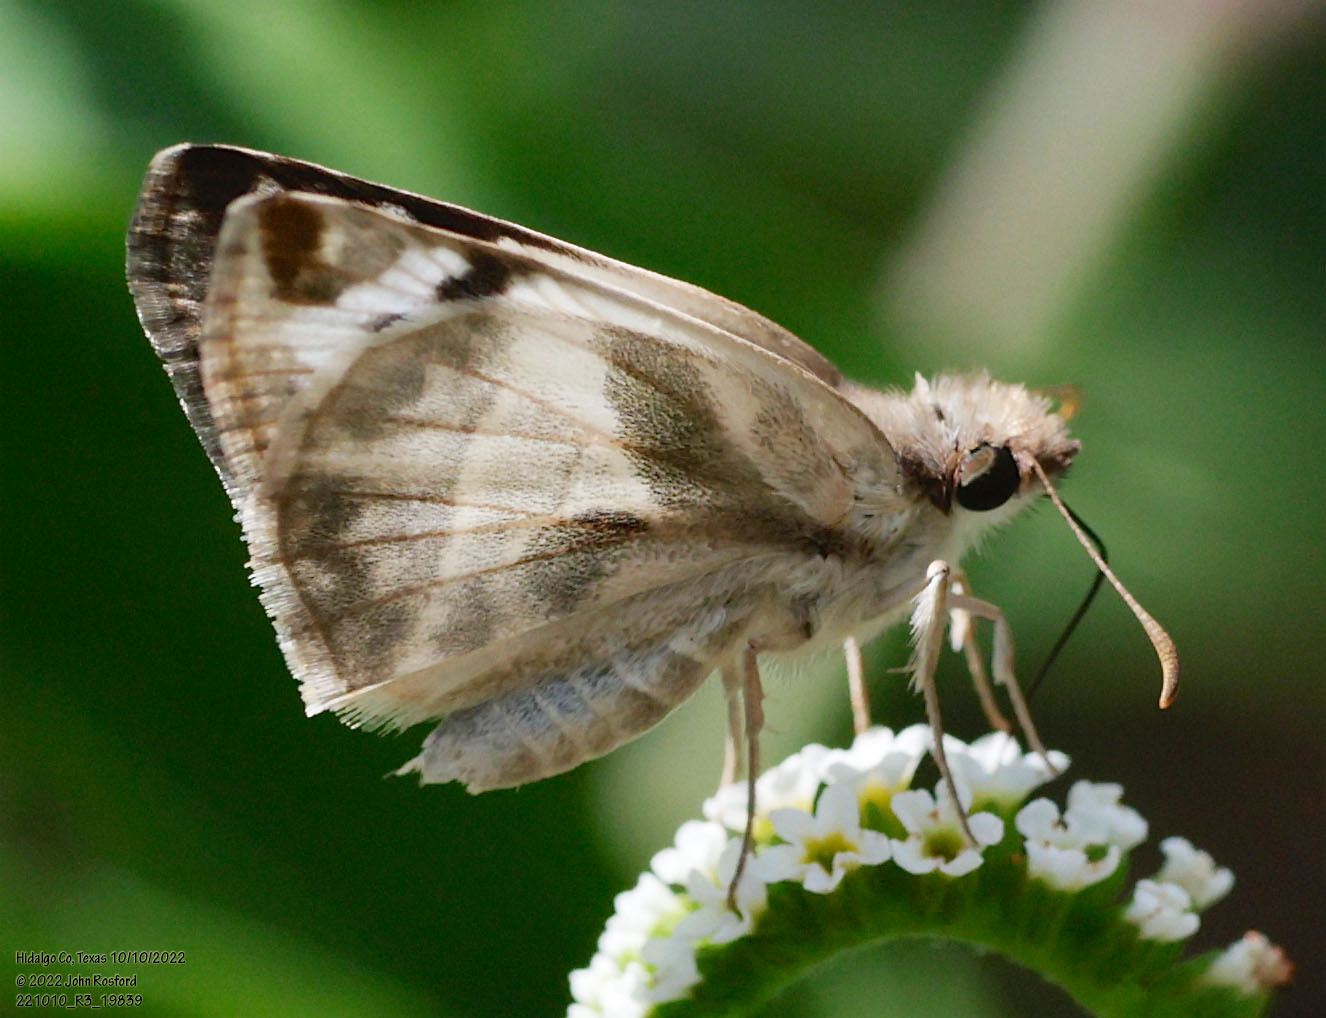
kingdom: Animalia
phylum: Arthropoda
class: Insecta
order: Lepidoptera
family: Hesperiidae
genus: Heliopetes
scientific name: Heliopetes laviana
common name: Laviana white-skipper
